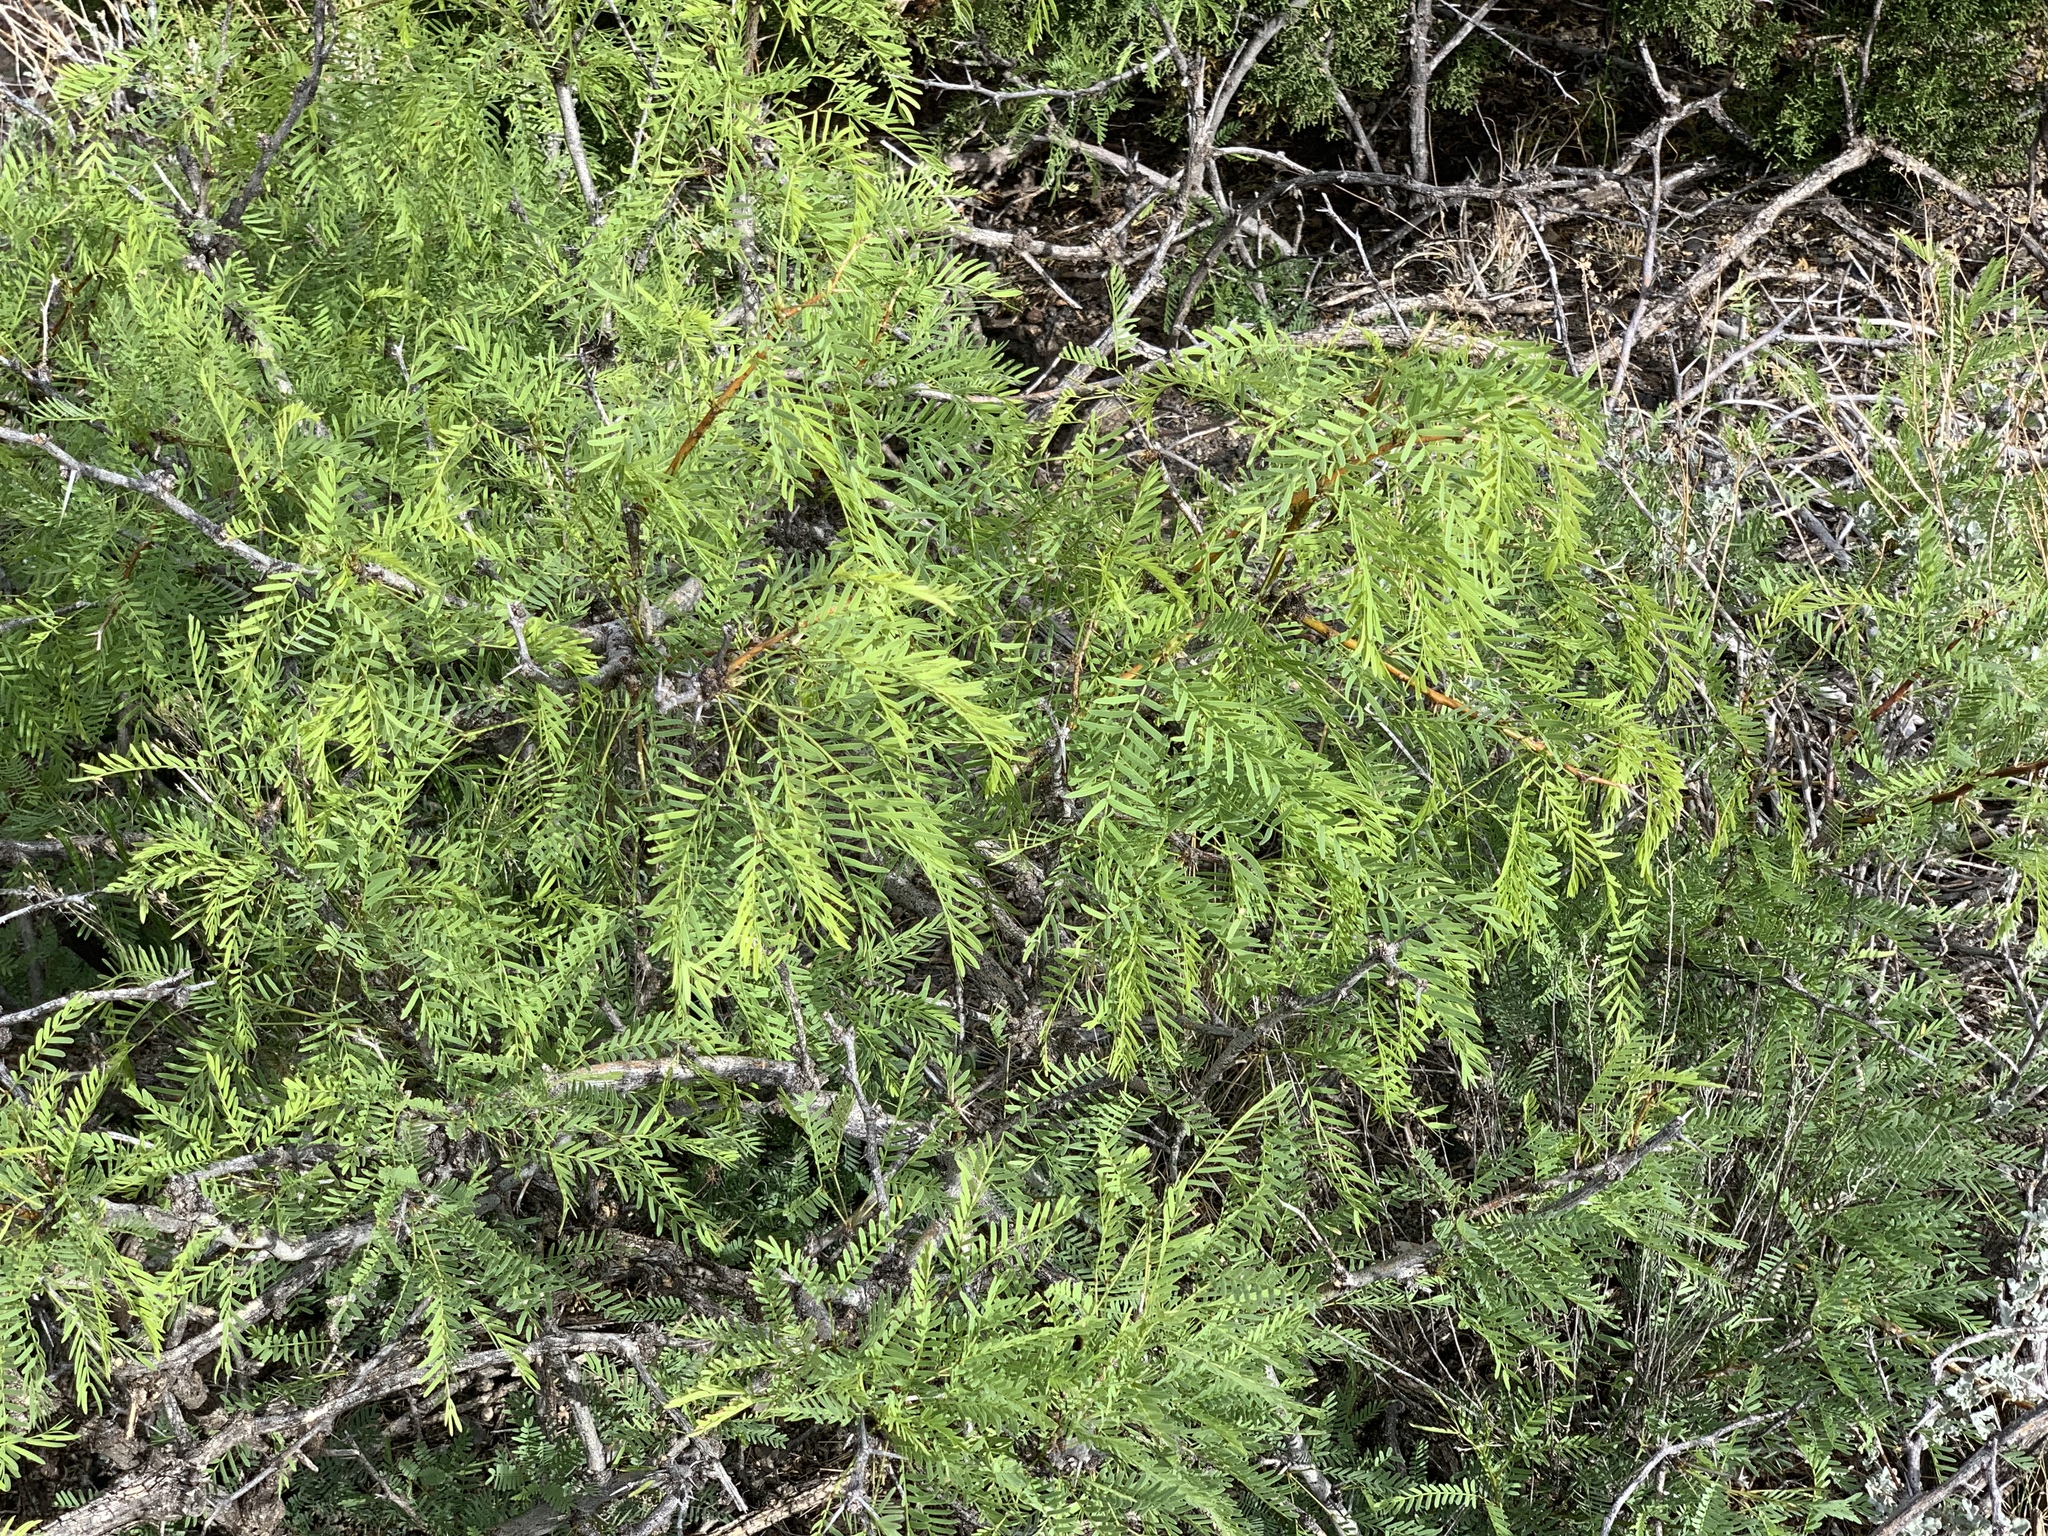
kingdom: Plantae
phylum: Tracheophyta
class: Magnoliopsida
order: Fabales
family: Fabaceae
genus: Prosopis
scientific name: Prosopis glandulosa
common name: Honey mesquite
